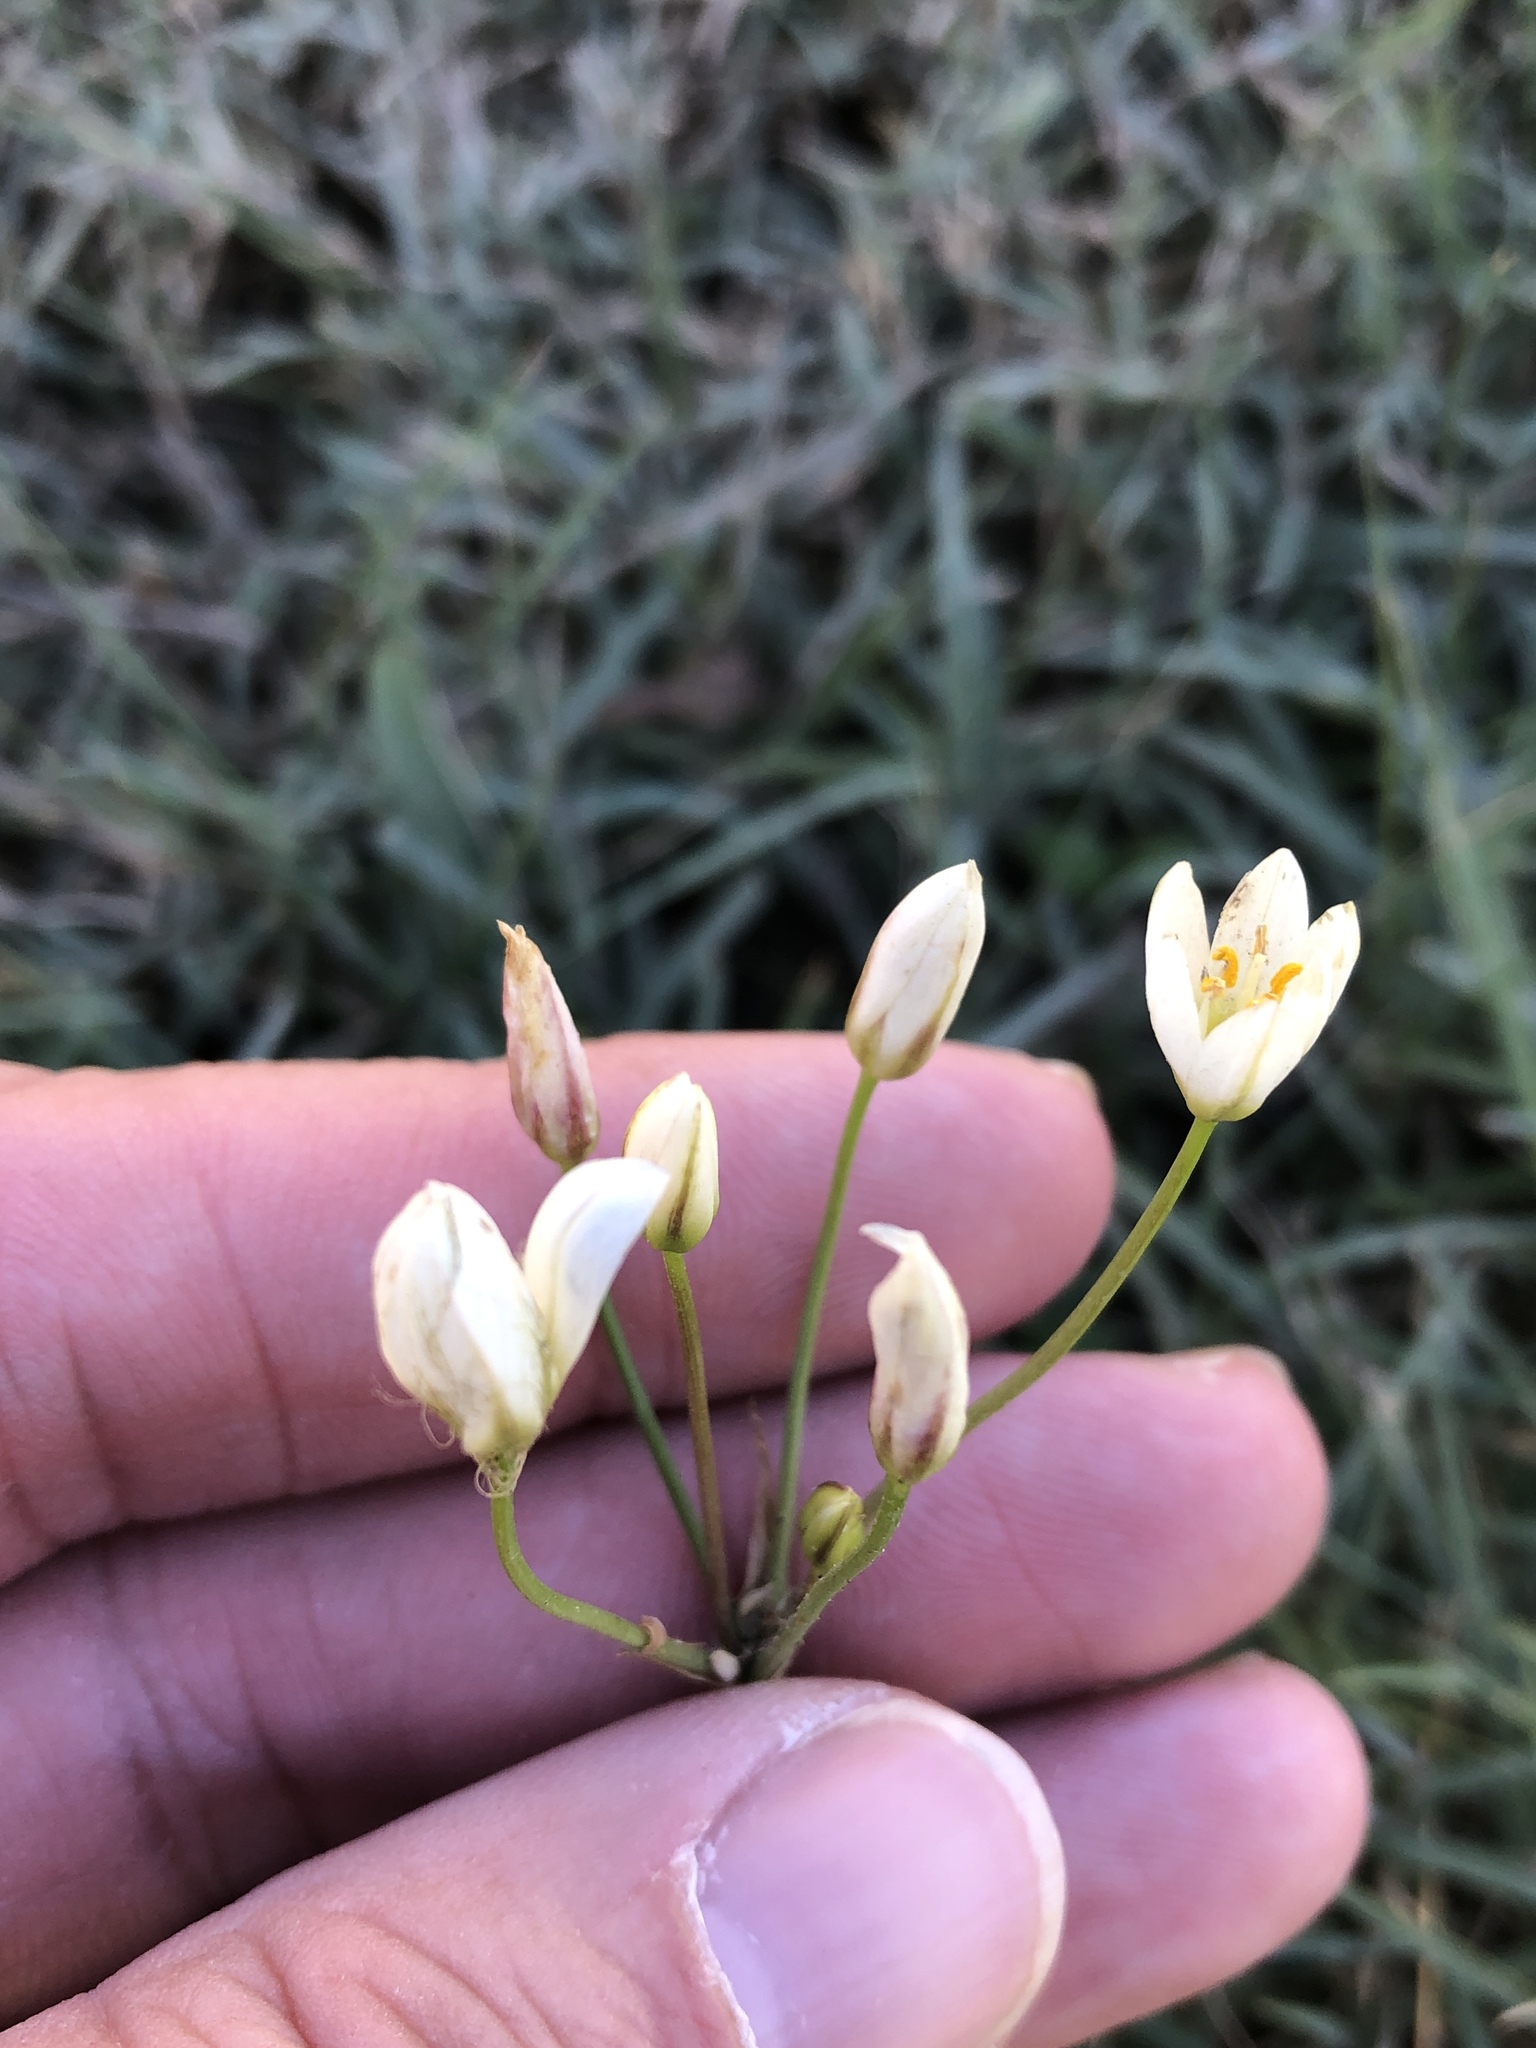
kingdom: Plantae
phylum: Tracheophyta
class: Liliopsida
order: Asparagales
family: Amaryllidaceae
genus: Nothoscordum
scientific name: Nothoscordum bivalve
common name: Crow-poison
